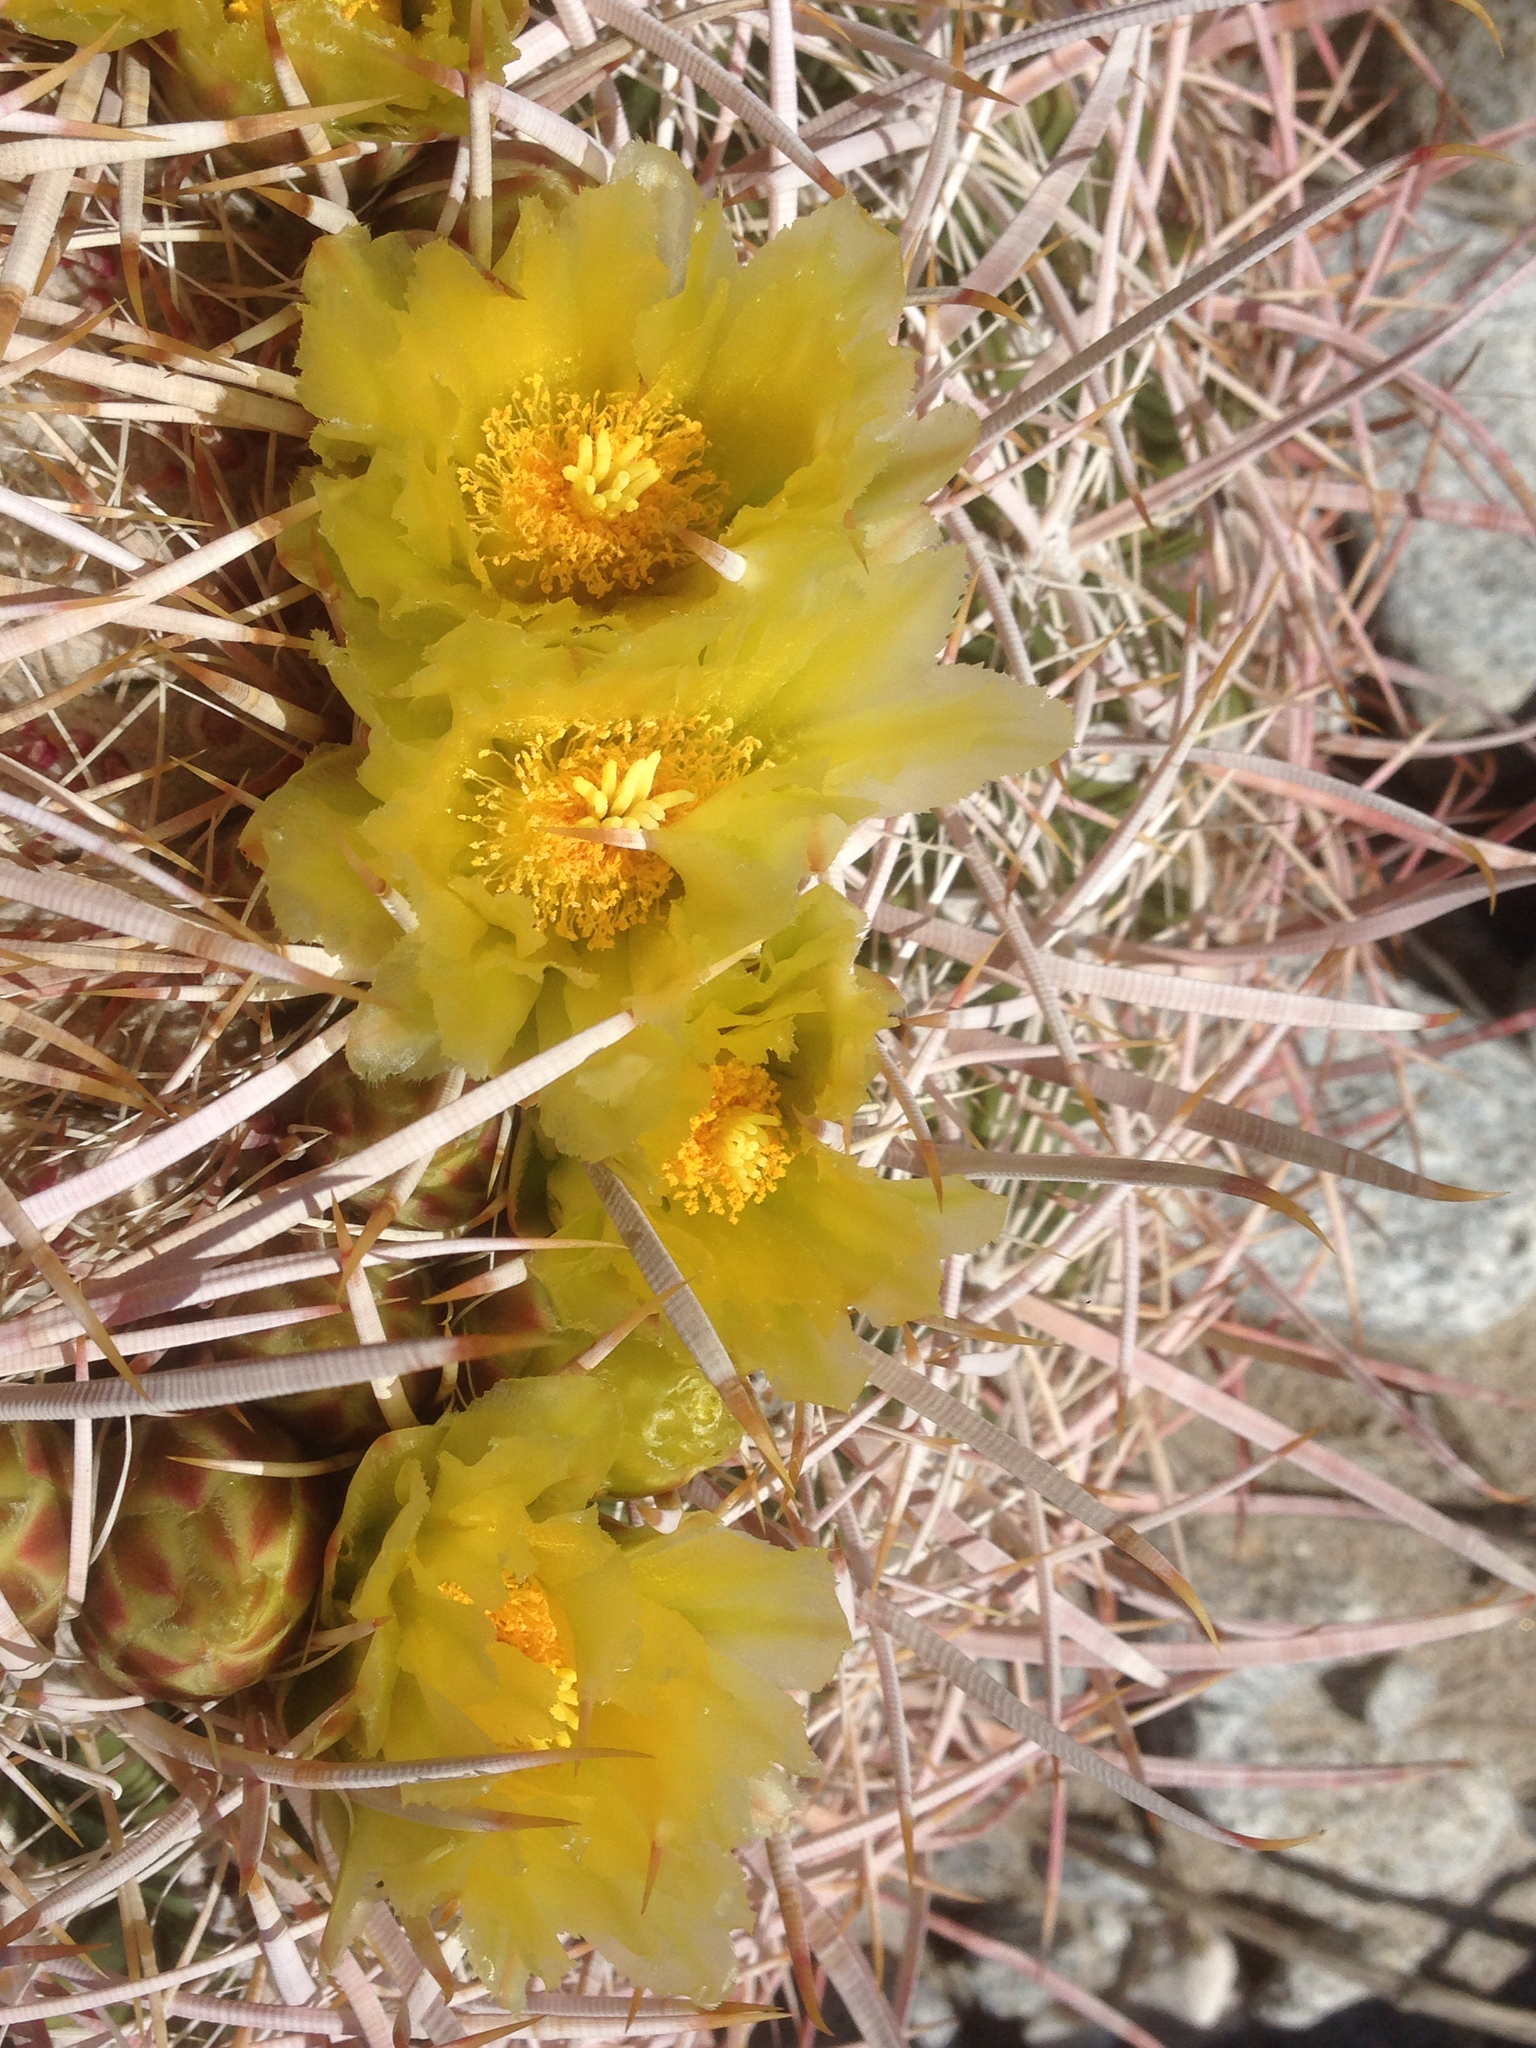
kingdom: Plantae
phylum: Tracheophyta
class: Magnoliopsida
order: Caryophyllales
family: Cactaceae
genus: Ferocactus
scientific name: Ferocactus cylindraceus
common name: California barrel cactus
